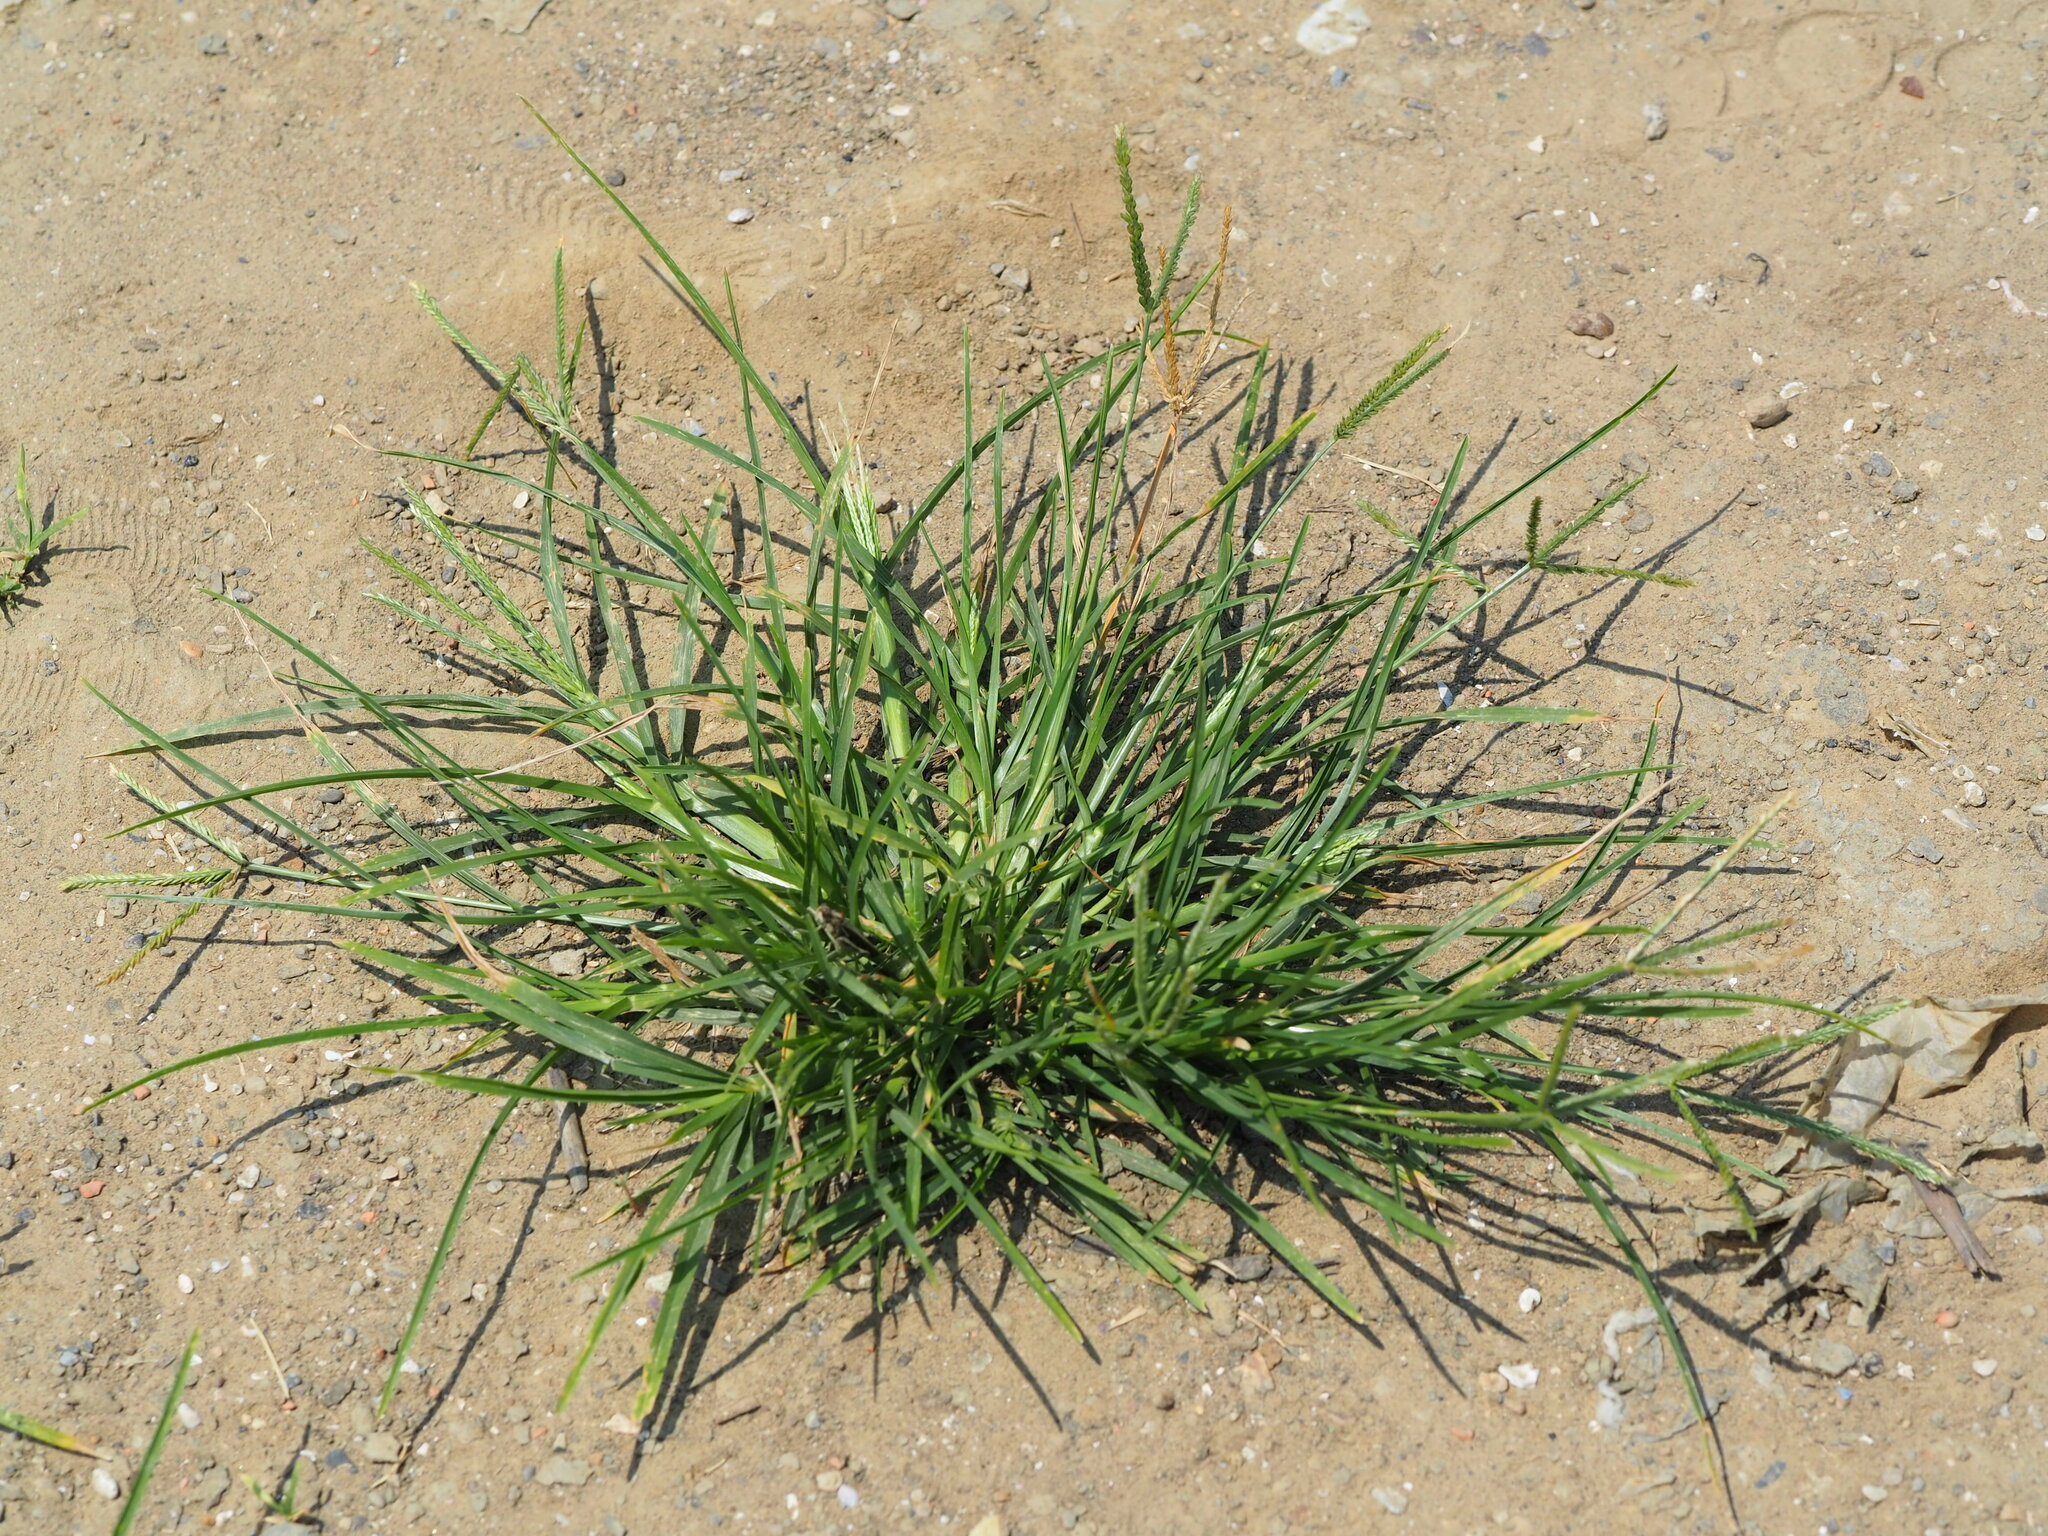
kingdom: Plantae
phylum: Tracheophyta
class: Liliopsida
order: Poales
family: Poaceae
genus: Eleusine
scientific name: Eleusine indica
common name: Yard-grass
